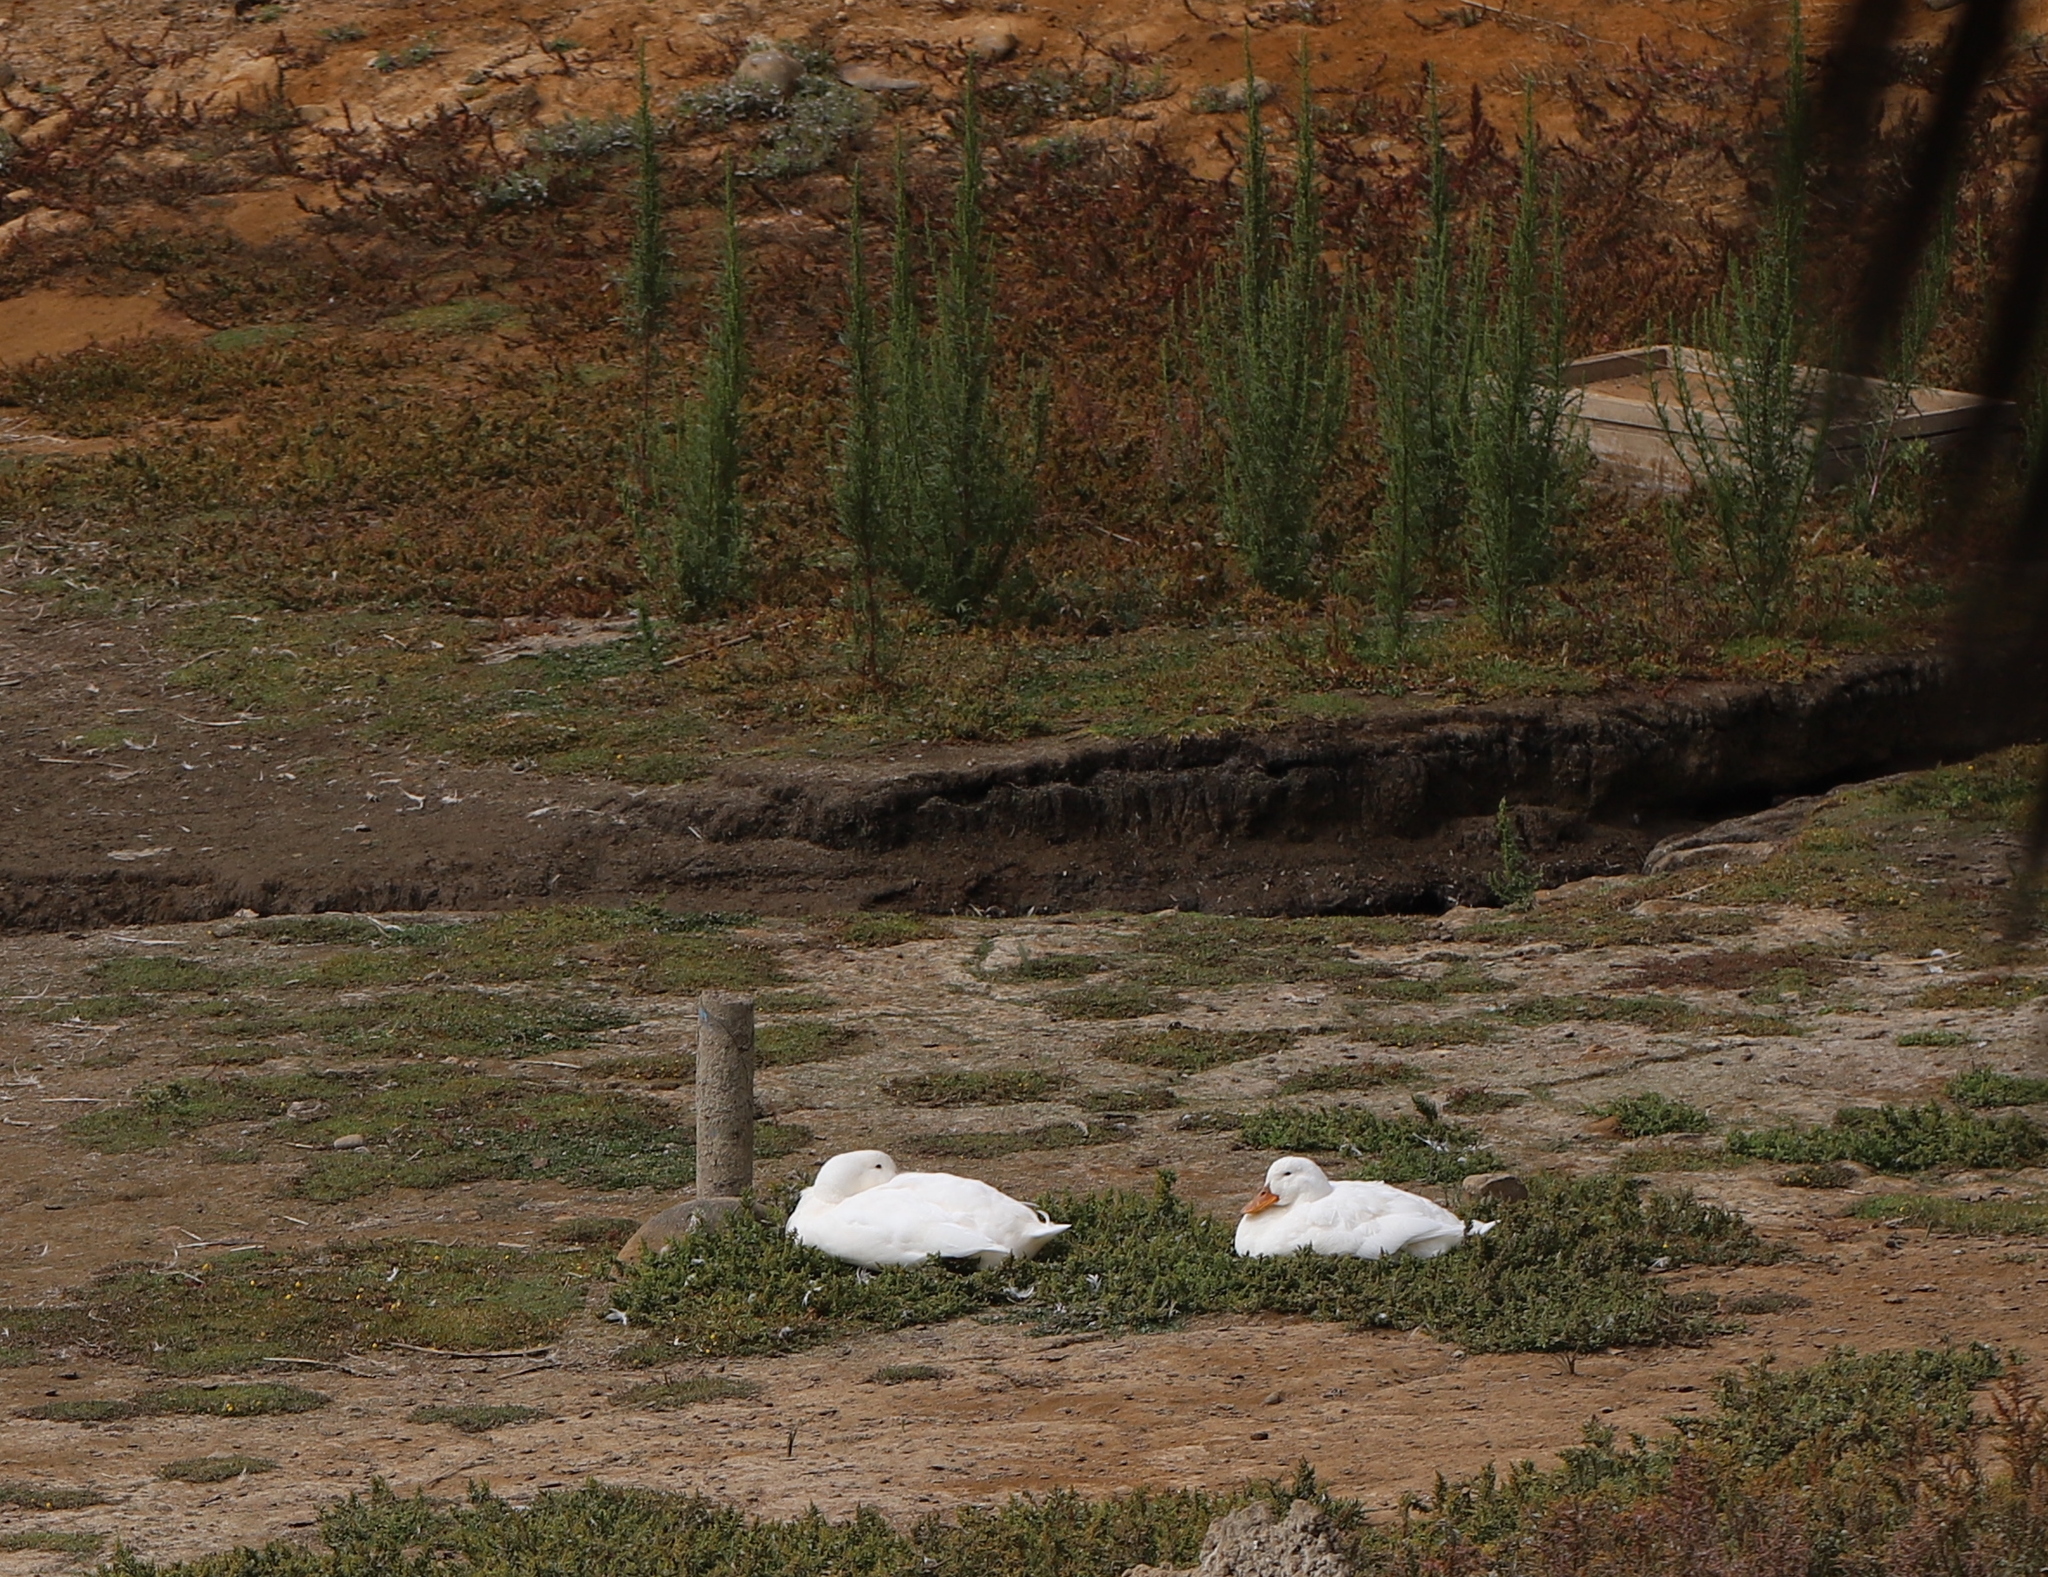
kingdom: Animalia
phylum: Chordata
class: Aves
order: Anseriformes
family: Anatidae
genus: Anas
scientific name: Anas platyrhynchos
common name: Mallard
